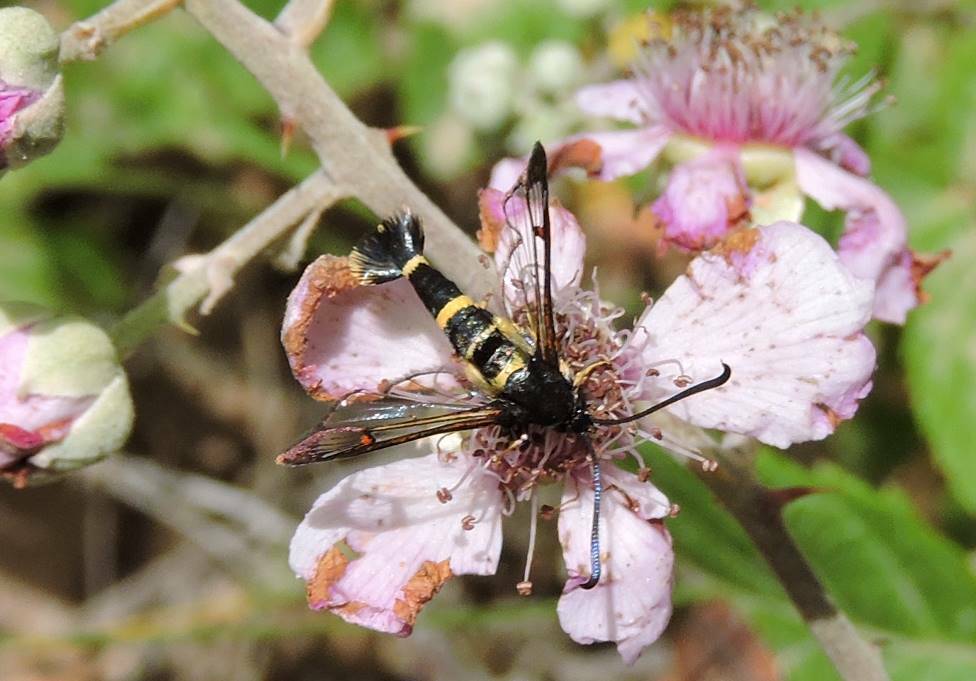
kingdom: Animalia
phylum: Arthropoda
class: Insecta
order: Lepidoptera
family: Sesiidae
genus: Synanthedon
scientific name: Synanthedon codeti
